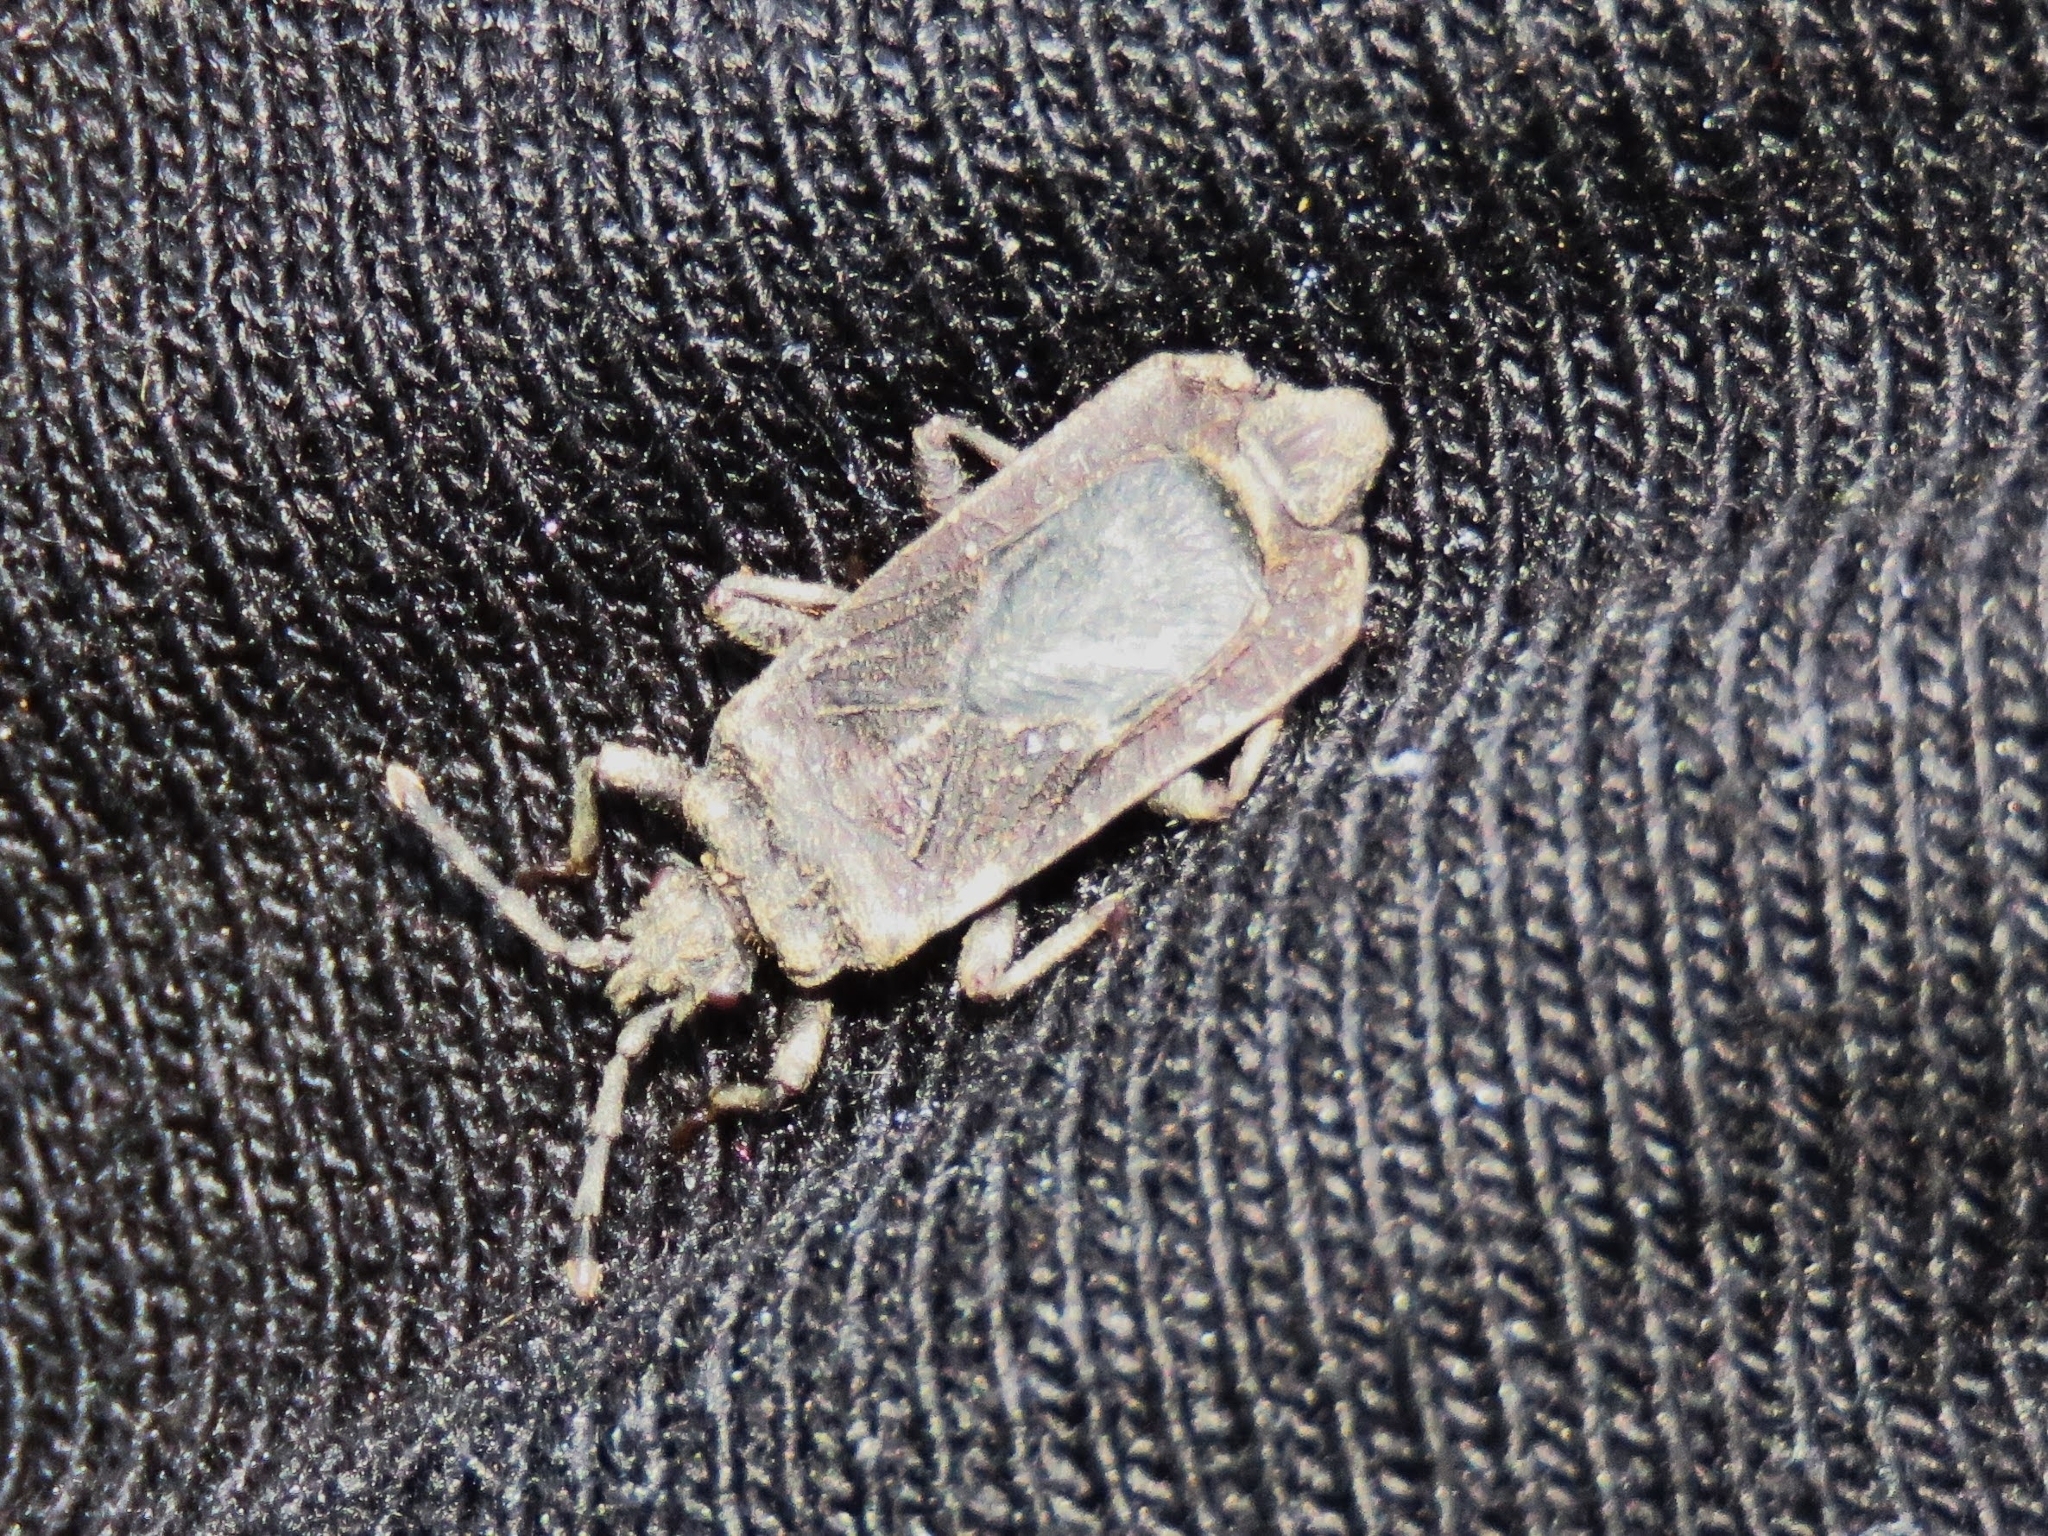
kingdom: Animalia
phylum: Arthropoda
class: Insecta
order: Hemiptera
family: Aradidae
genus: Brachyrhynchus
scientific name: Brachyrhynchus membranaceus
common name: Aradid flat bug
